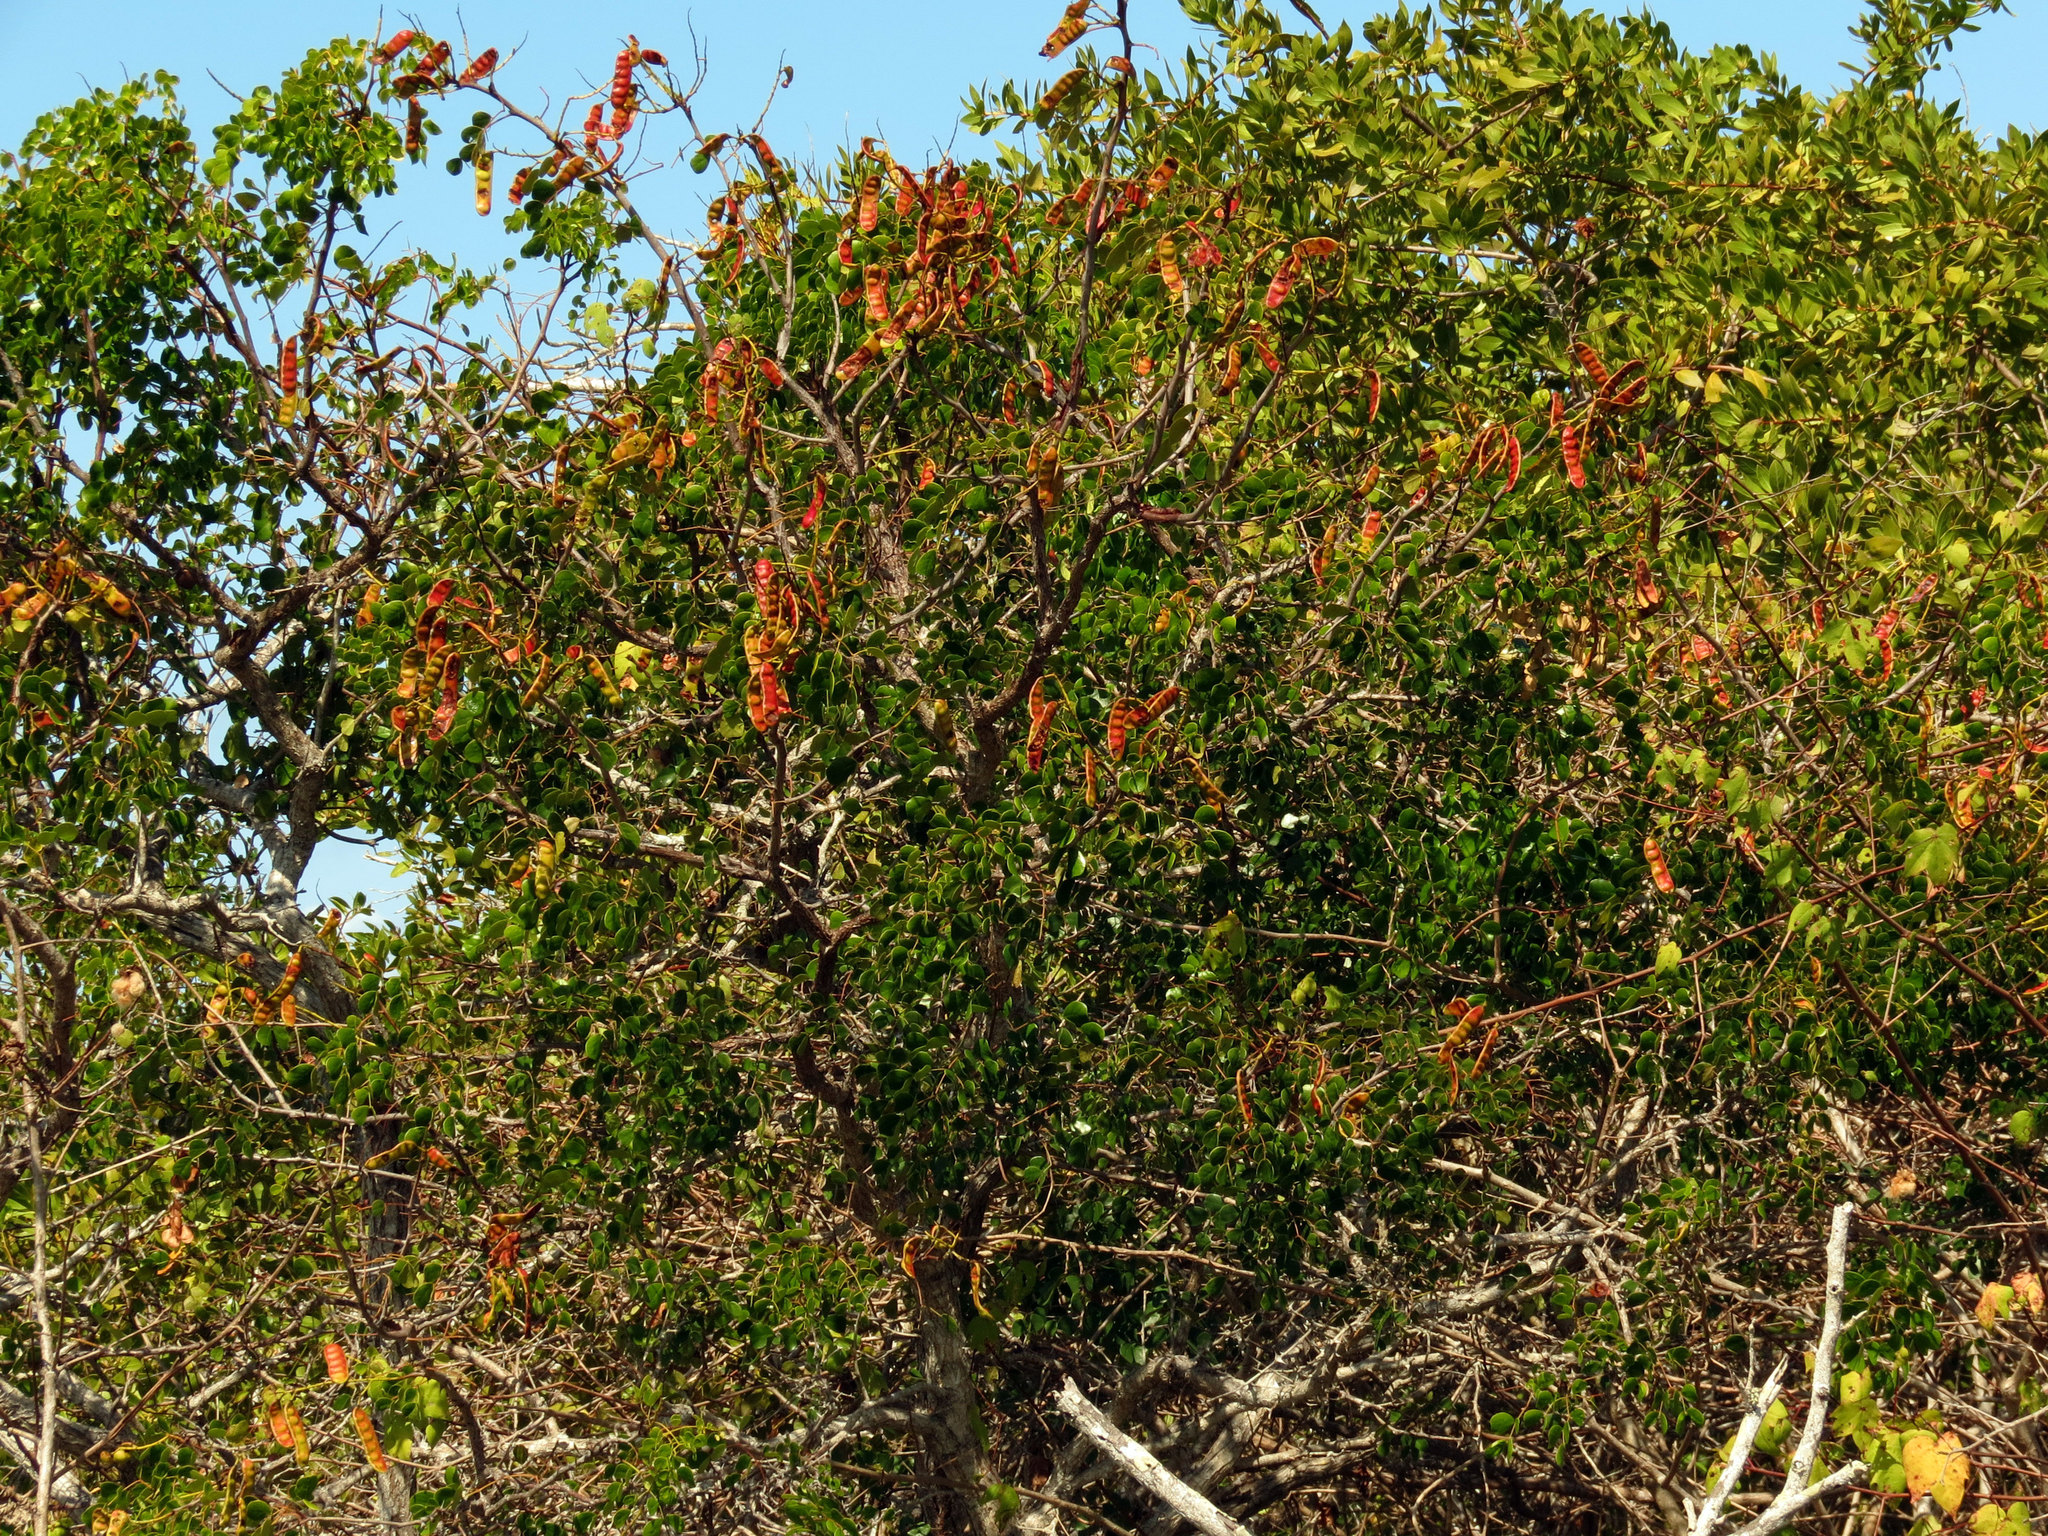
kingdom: Plantae
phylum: Tracheophyta
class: Magnoliopsida
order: Fabales
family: Fabaceae
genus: Tara
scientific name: Tara vesicaria
